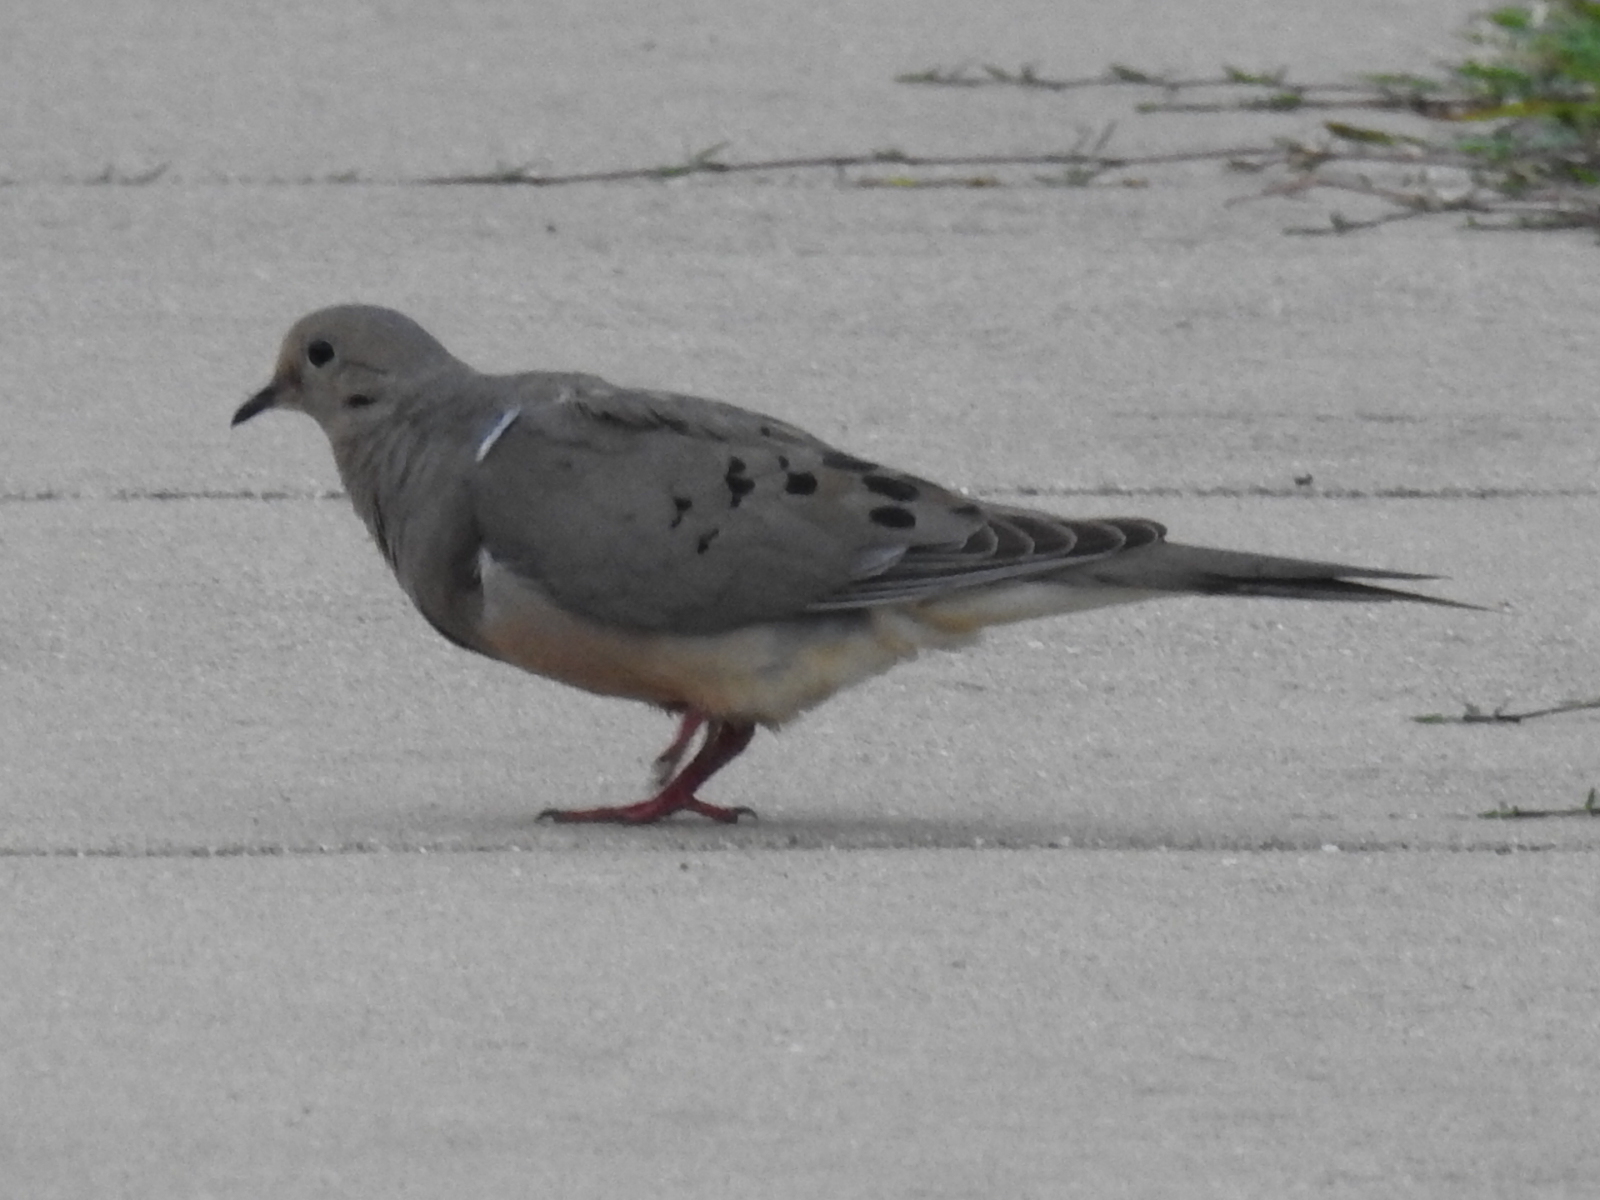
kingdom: Animalia
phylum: Chordata
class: Aves
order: Columbiformes
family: Columbidae
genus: Zenaida
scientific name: Zenaida macroura
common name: Mourning dove
